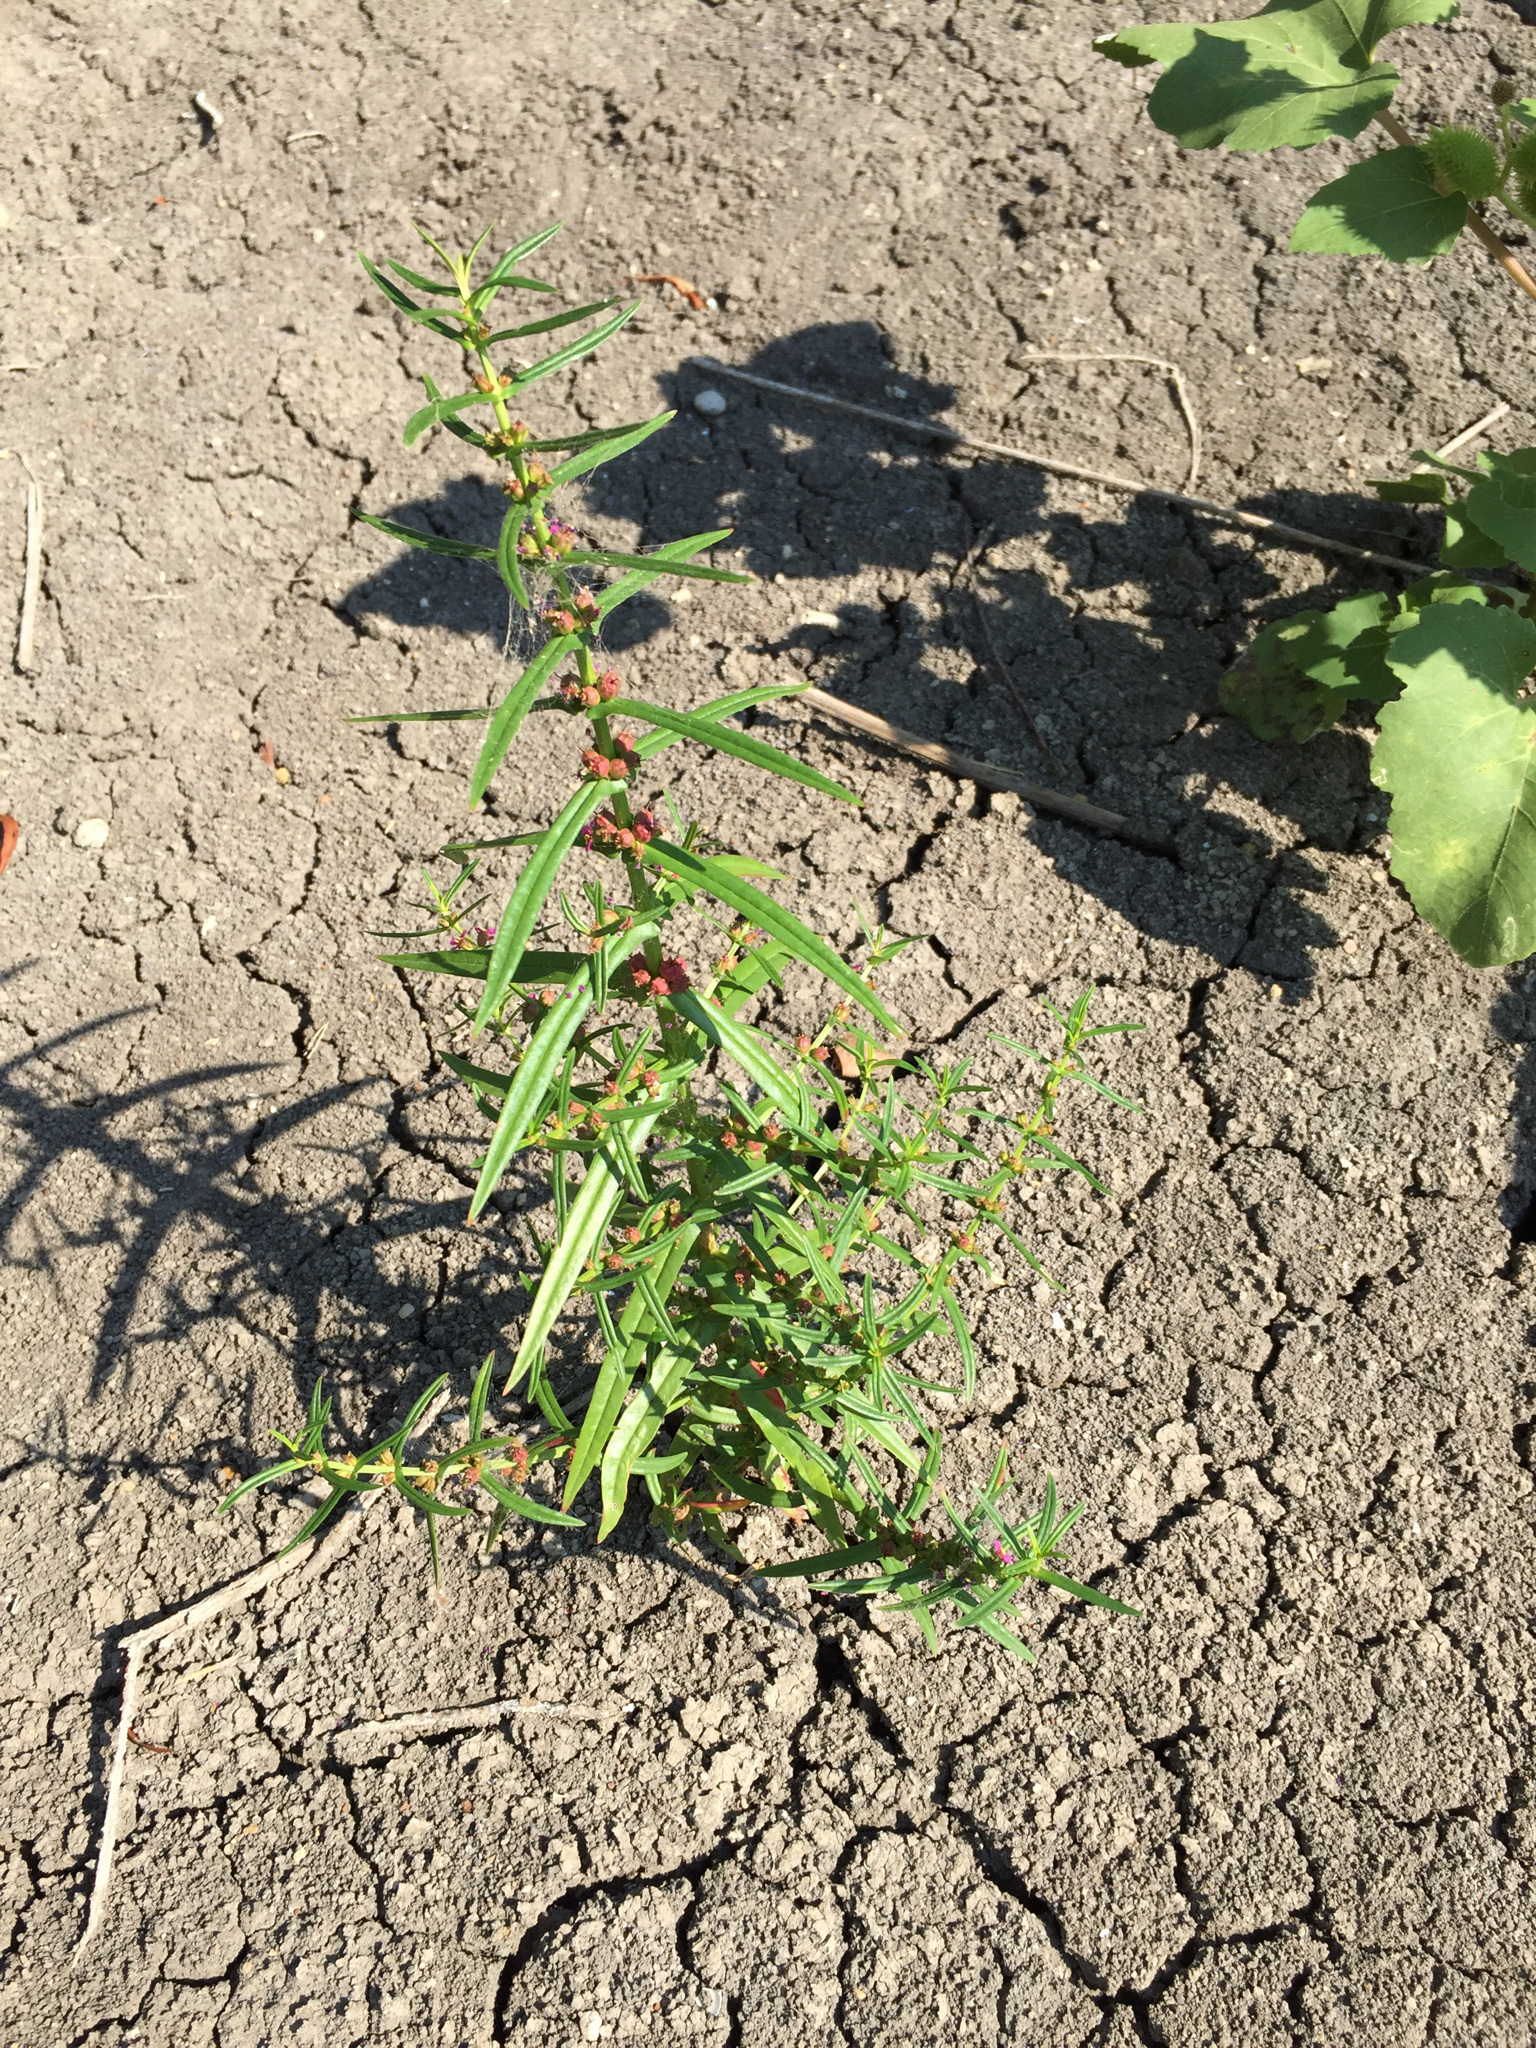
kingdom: Plantae
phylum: Tracheophyta
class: Magnoliopsida
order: Myrtales
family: Lythraceae
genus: Ammannia
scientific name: Ammannia coccinea
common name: Valley redstem
